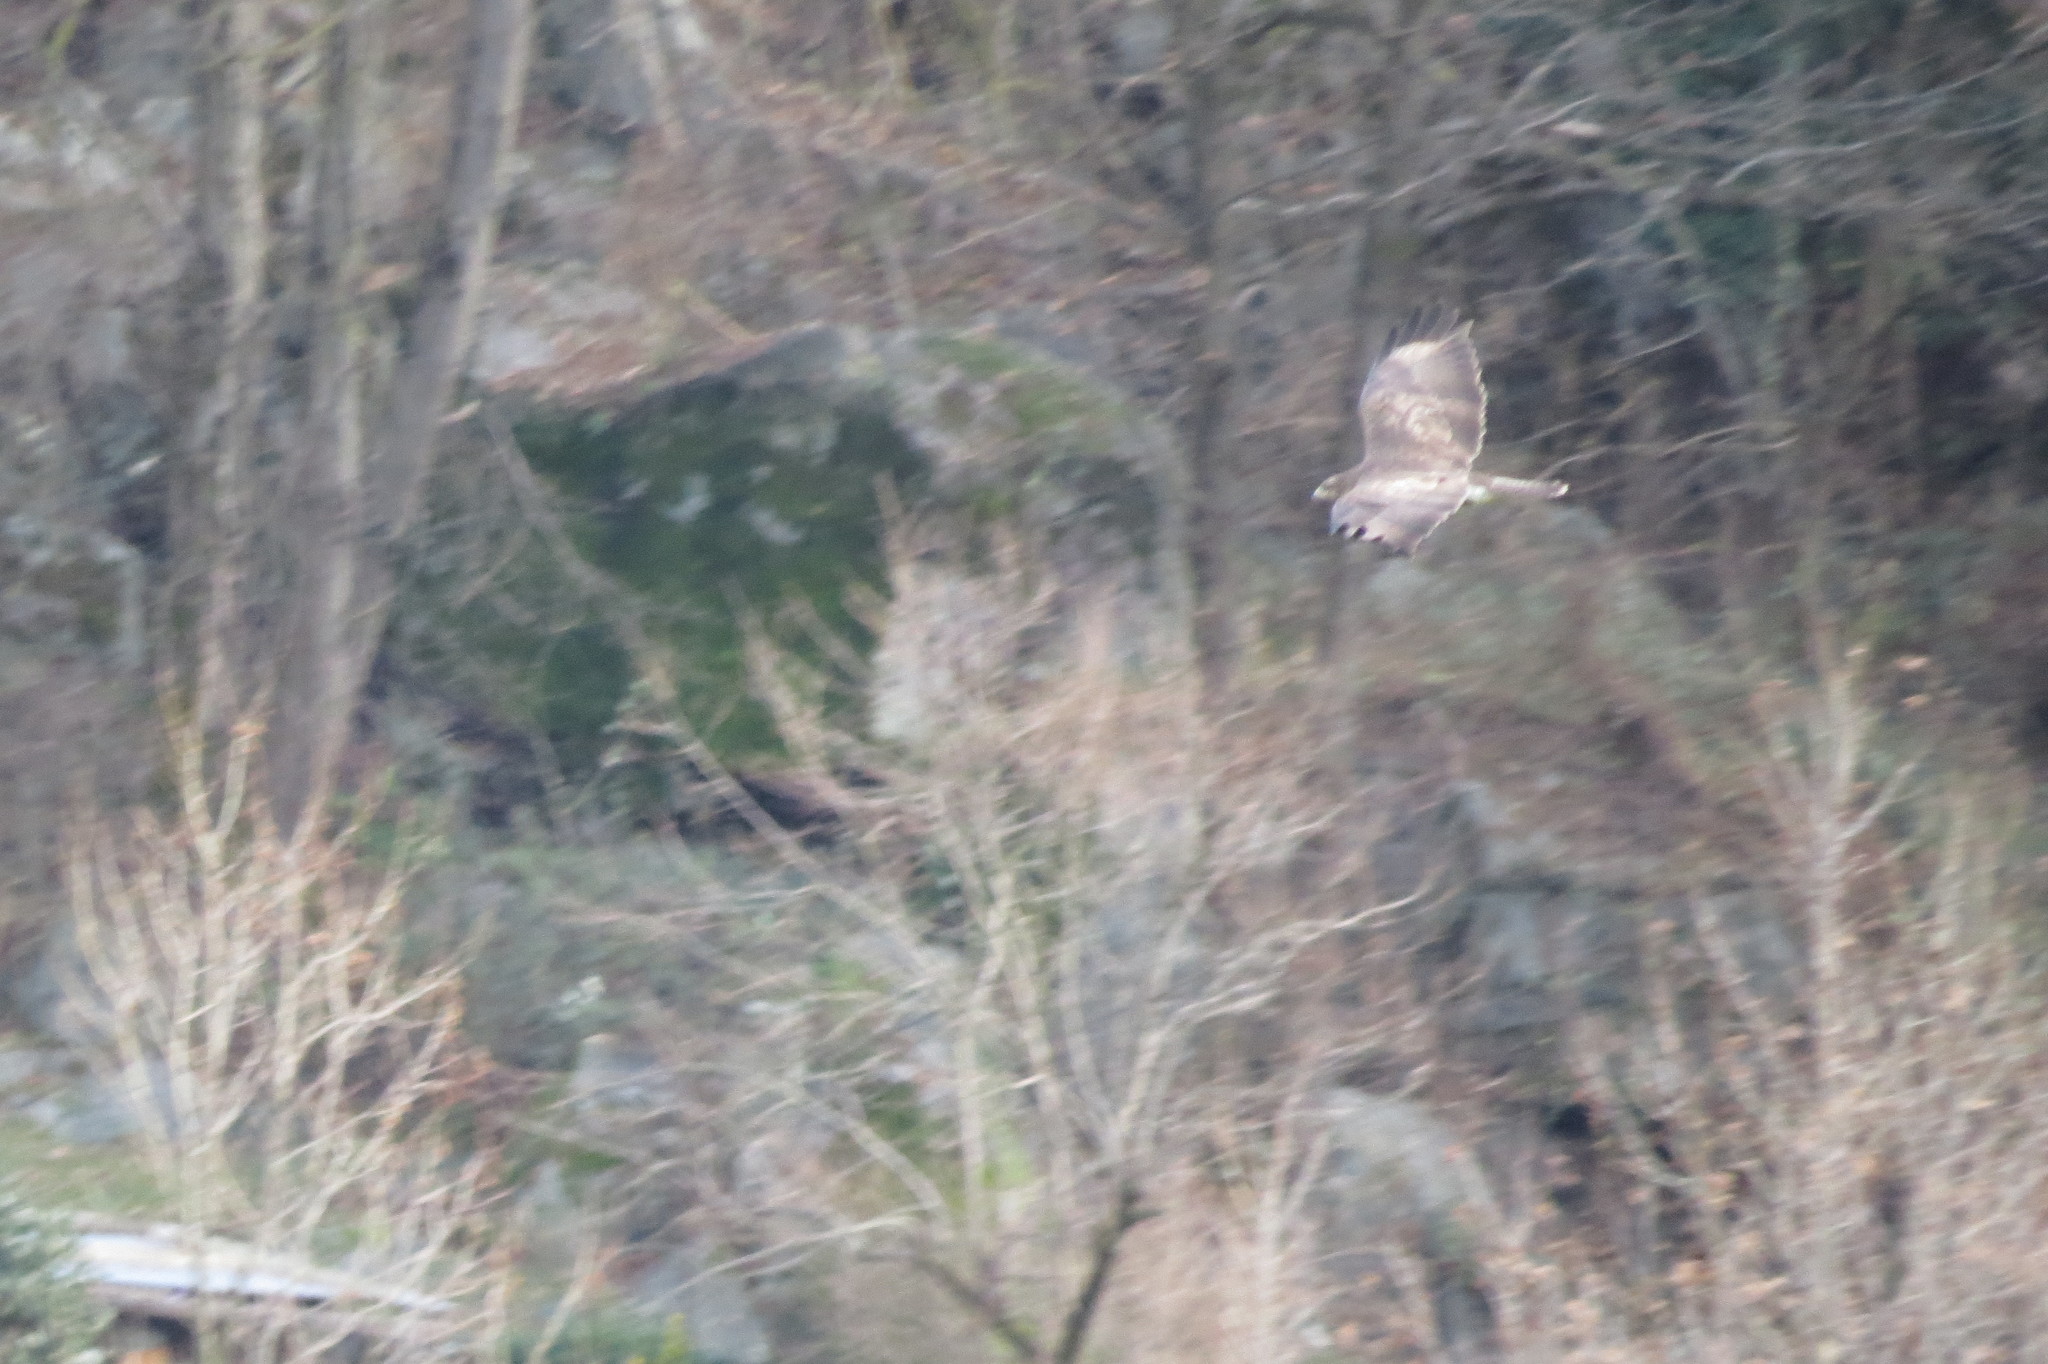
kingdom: Animalia
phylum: Chordata
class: Aves
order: Accipitriformes
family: Accipitridae
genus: Buteo
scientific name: Buteo buteo
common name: Common buzzard
